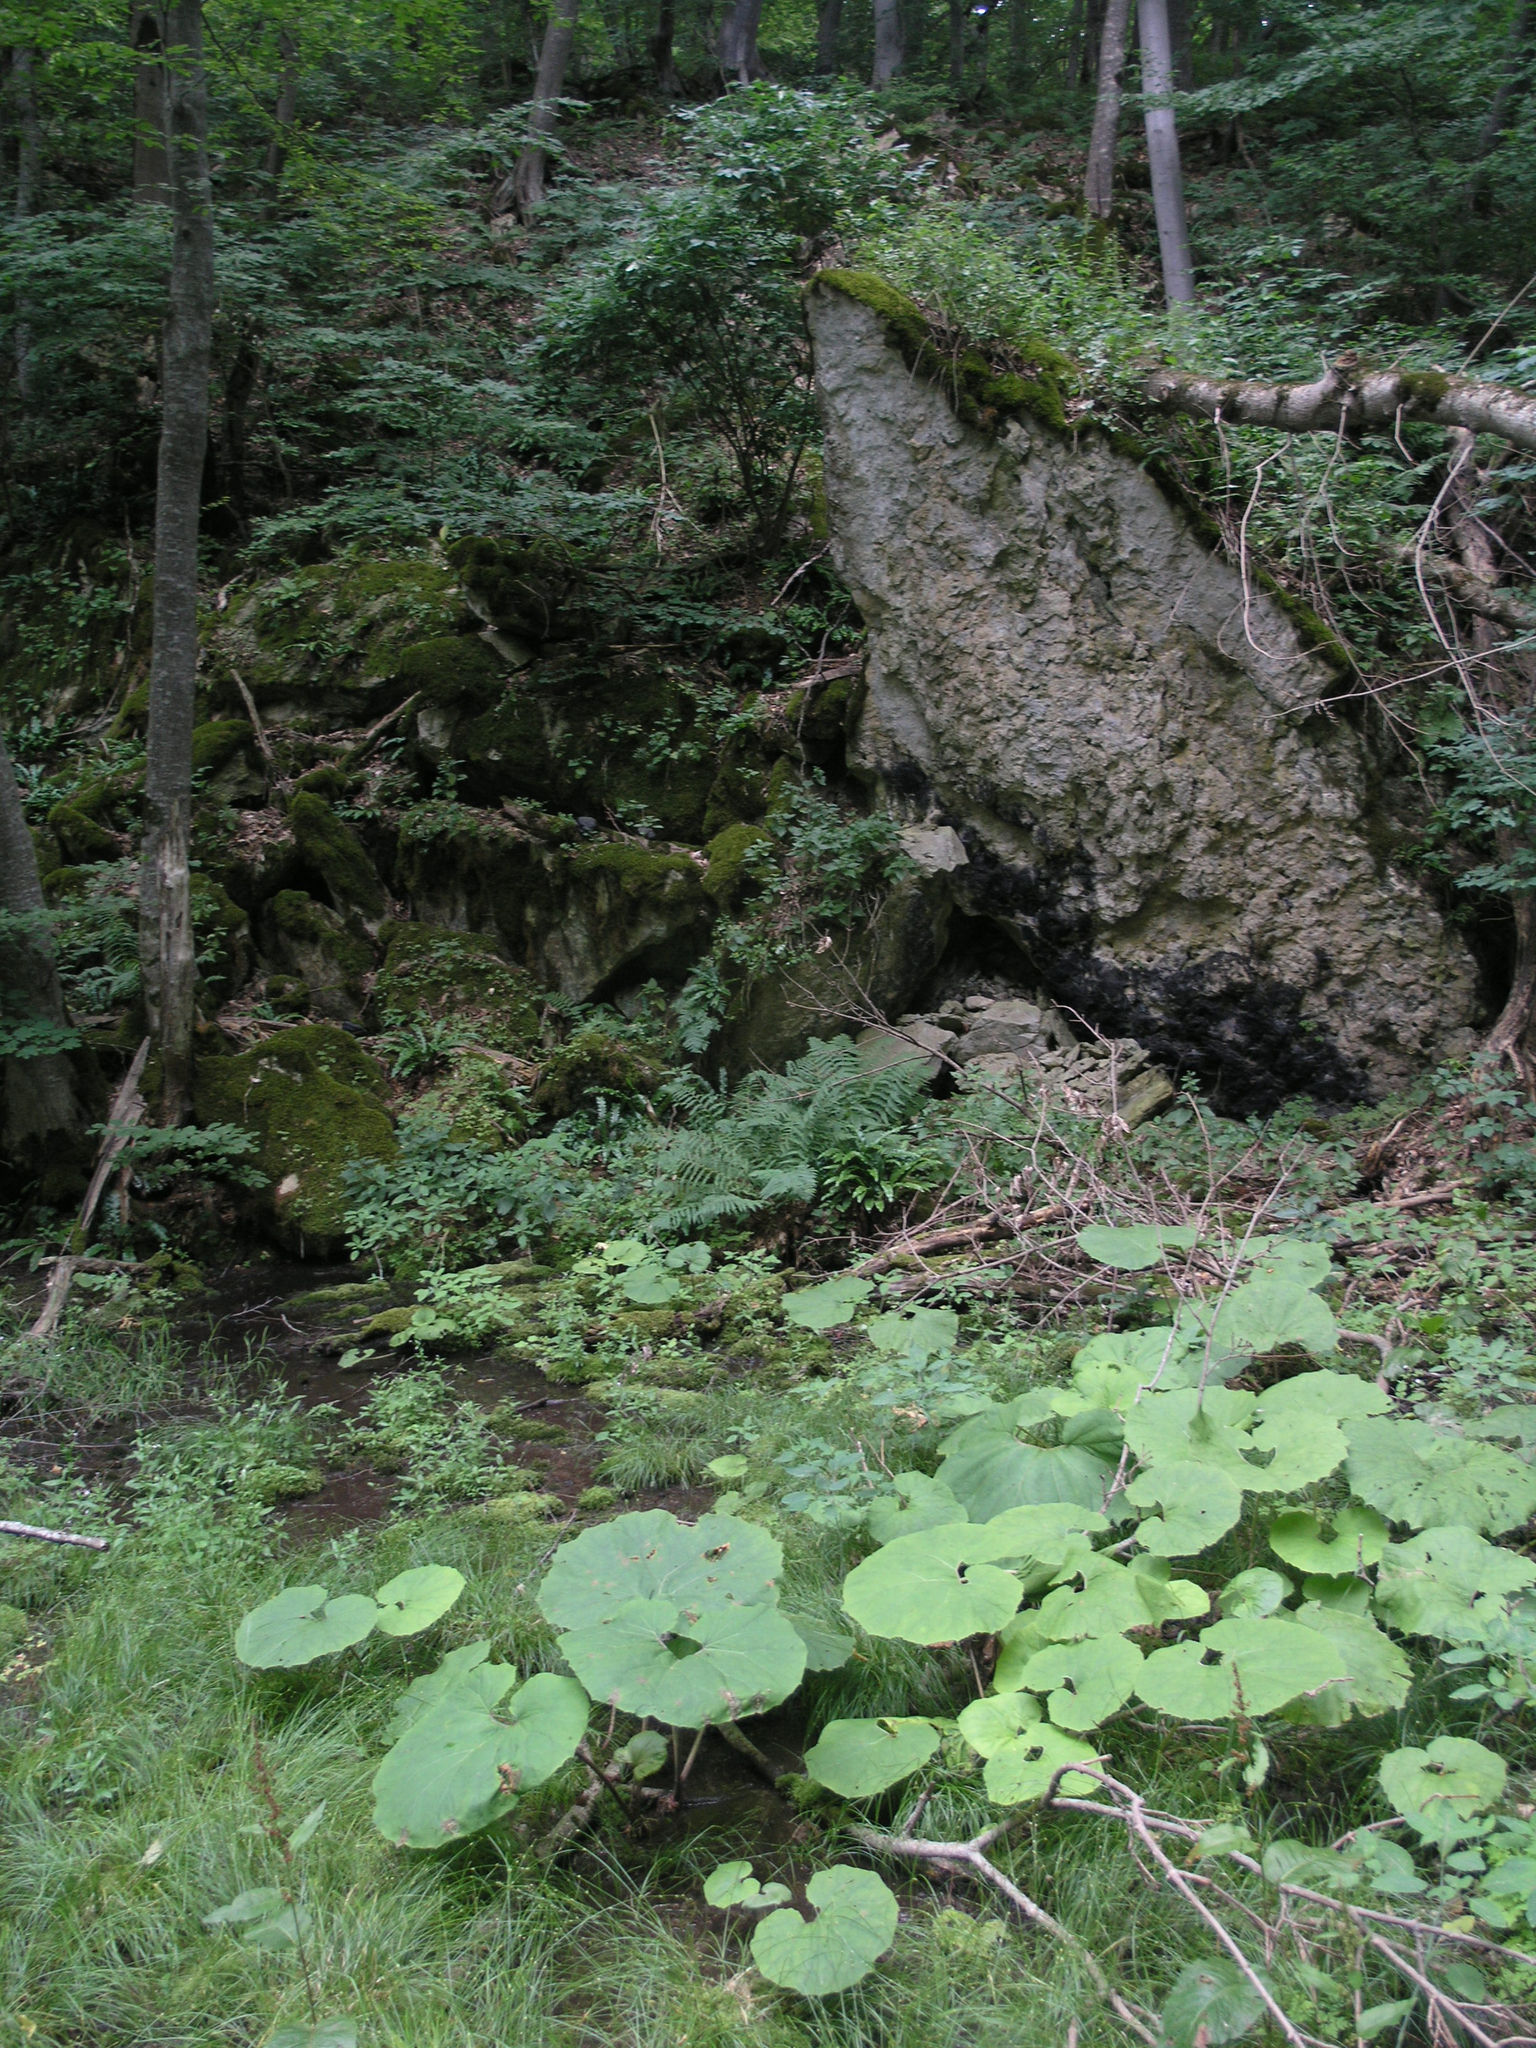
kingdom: Plantae
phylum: Tracheophyta
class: Magnoliopsida
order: Asterales
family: Asteraceae
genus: Petasites
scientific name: Petasites albus
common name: White butterbur
